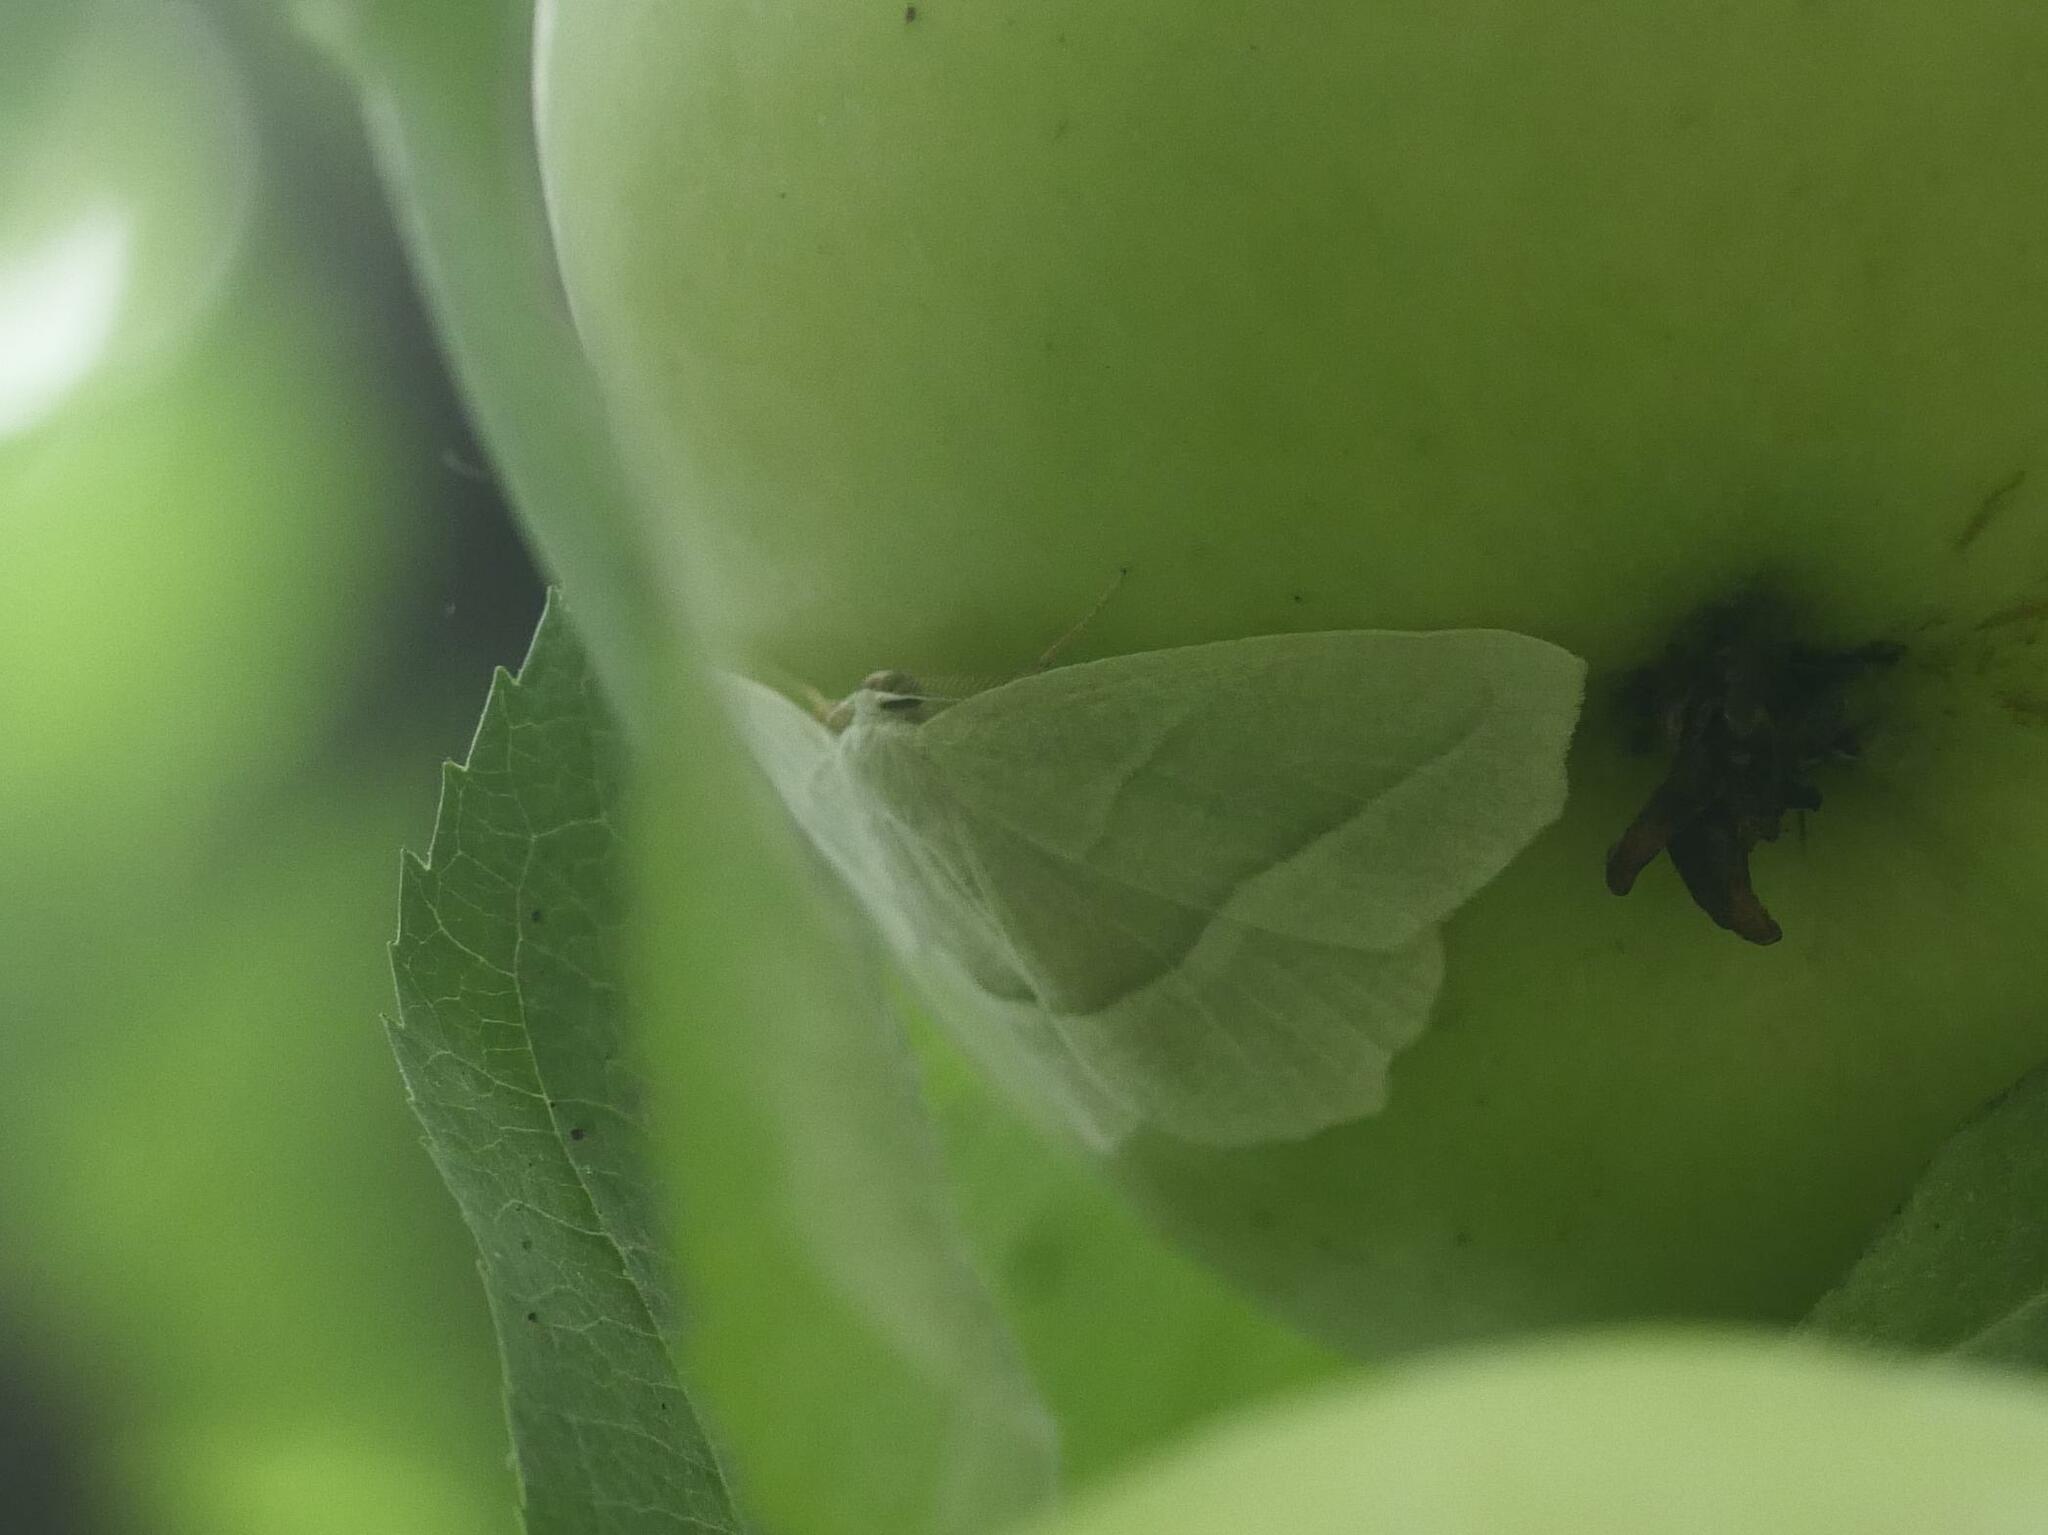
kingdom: Animalia
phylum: Arthropoda
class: Insecta
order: Lepidoptera
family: Geometridae
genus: Campaea
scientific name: Campaea perlata
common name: Fringed looper
